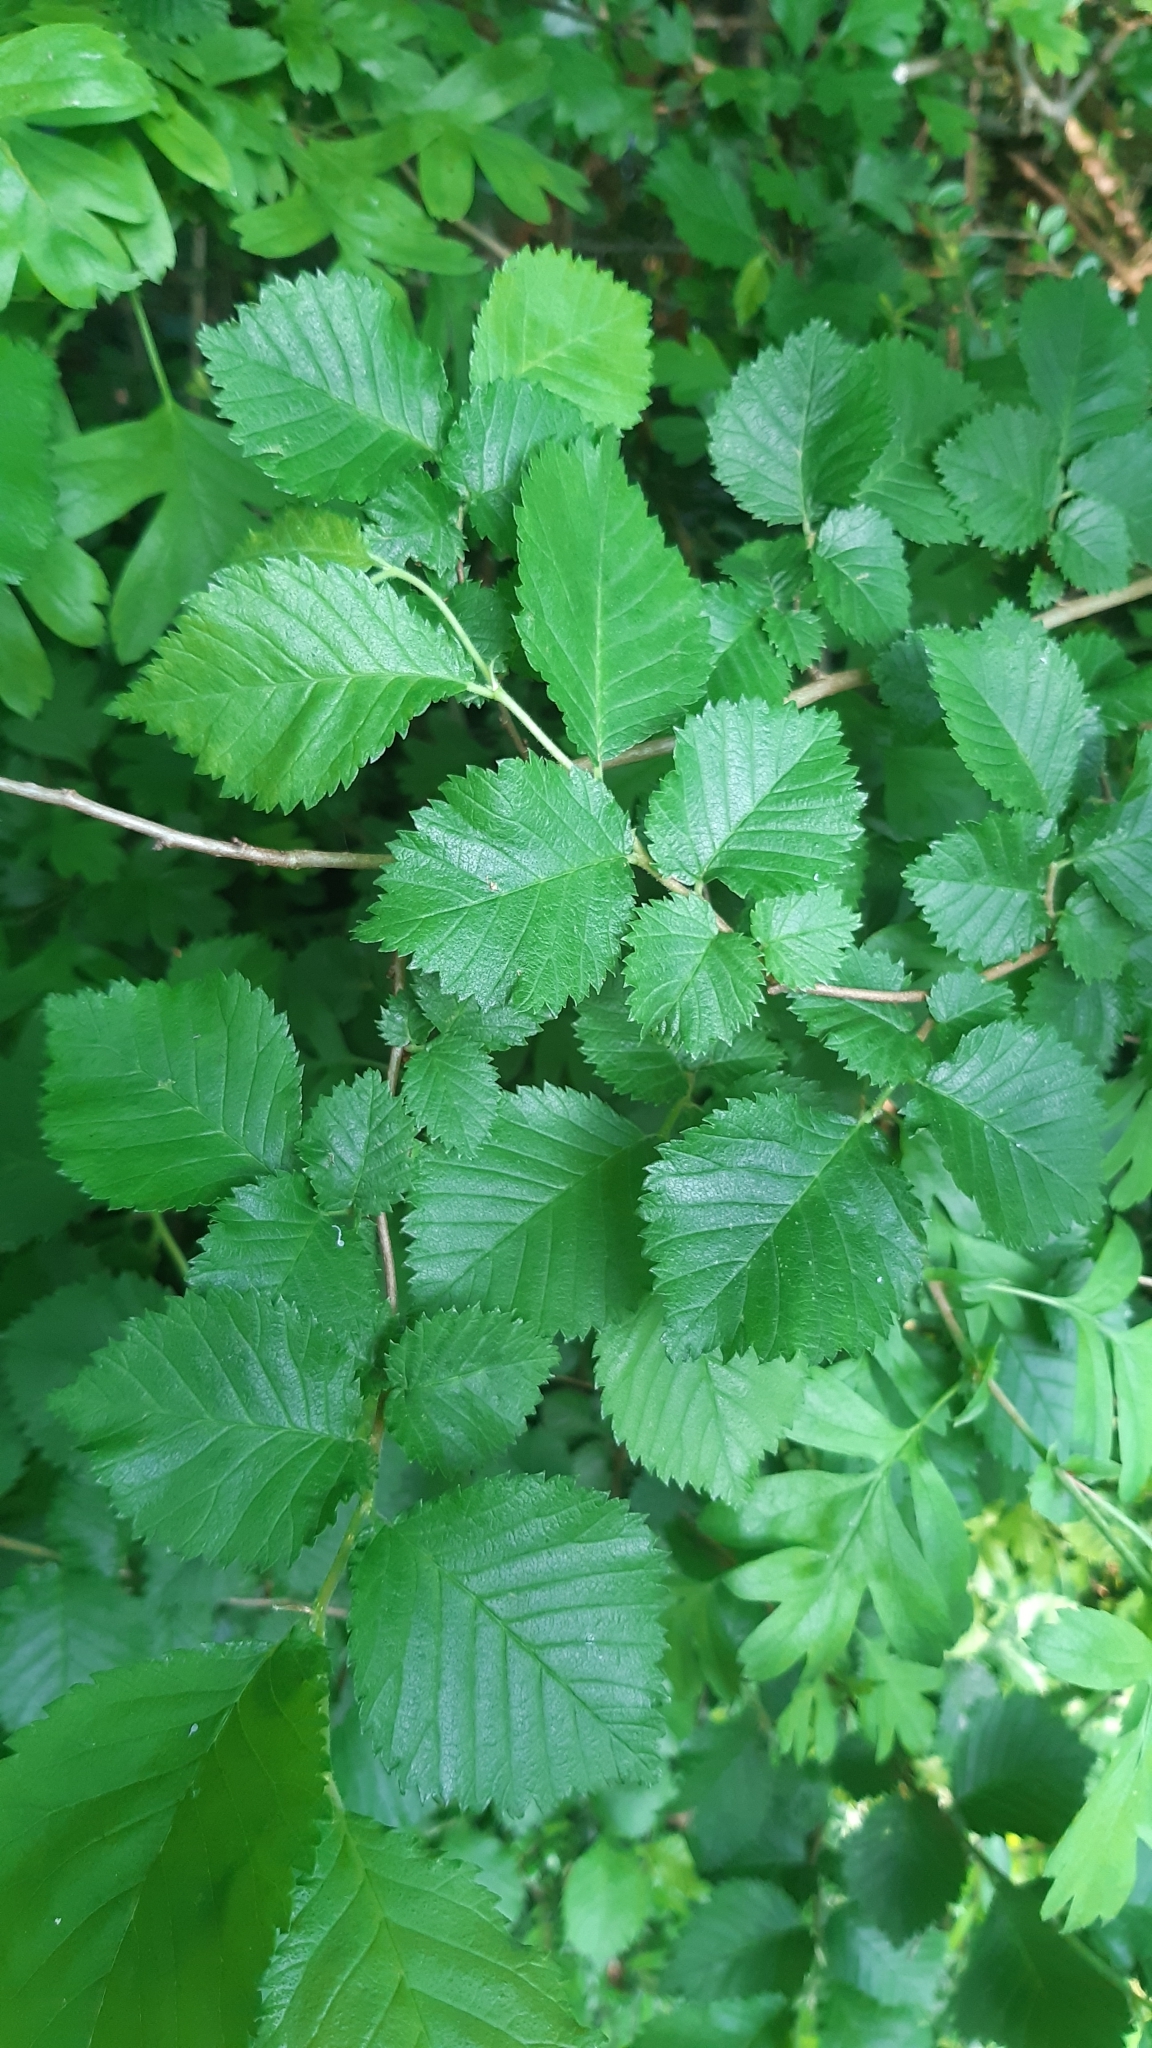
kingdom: Plantae
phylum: Tracheophyta
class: Magnoliopsida
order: Rosales
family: Ulmaceae
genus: Ulmus
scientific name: Ulmus minor
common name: Small-leaved elm
